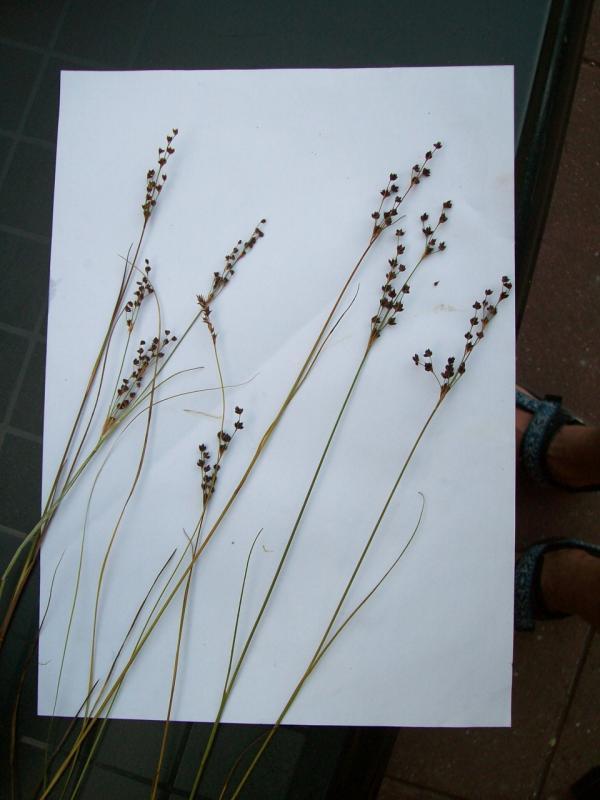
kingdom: Plantae
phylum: Tracheophyta
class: Liliopsida
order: Poales
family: Juncaceae
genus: Juncus
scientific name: Juncus alpinoarticulatus
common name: Alpine rush
